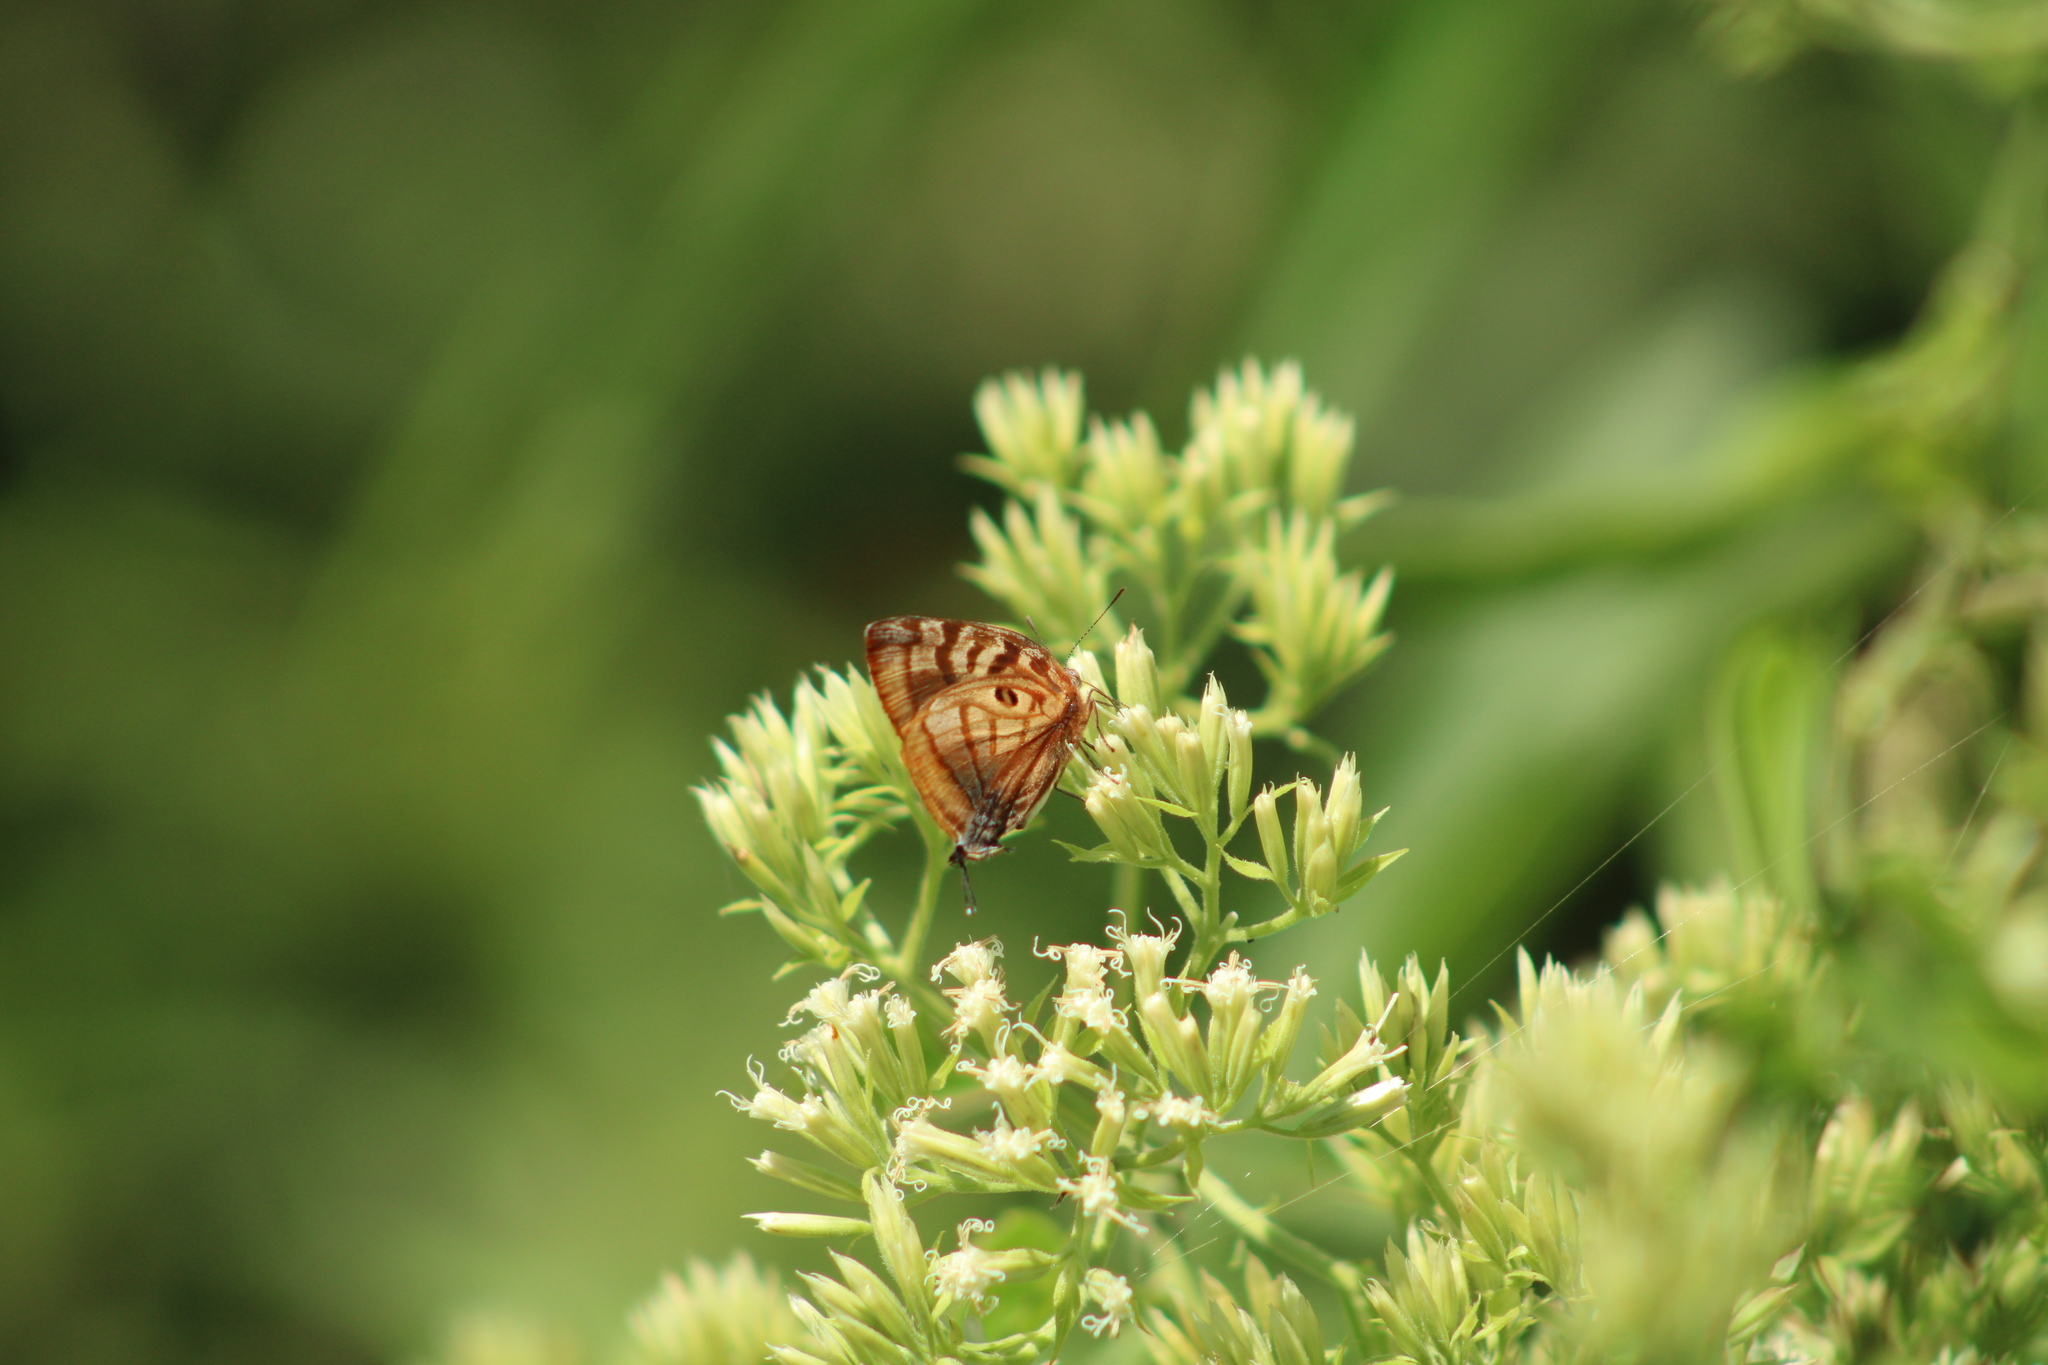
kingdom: Animalia
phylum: Arthropoda
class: Insecta
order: Lepidoptera
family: Lycaenidae
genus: Rekoa
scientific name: Rekoa meton
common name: Meton hairstreak
